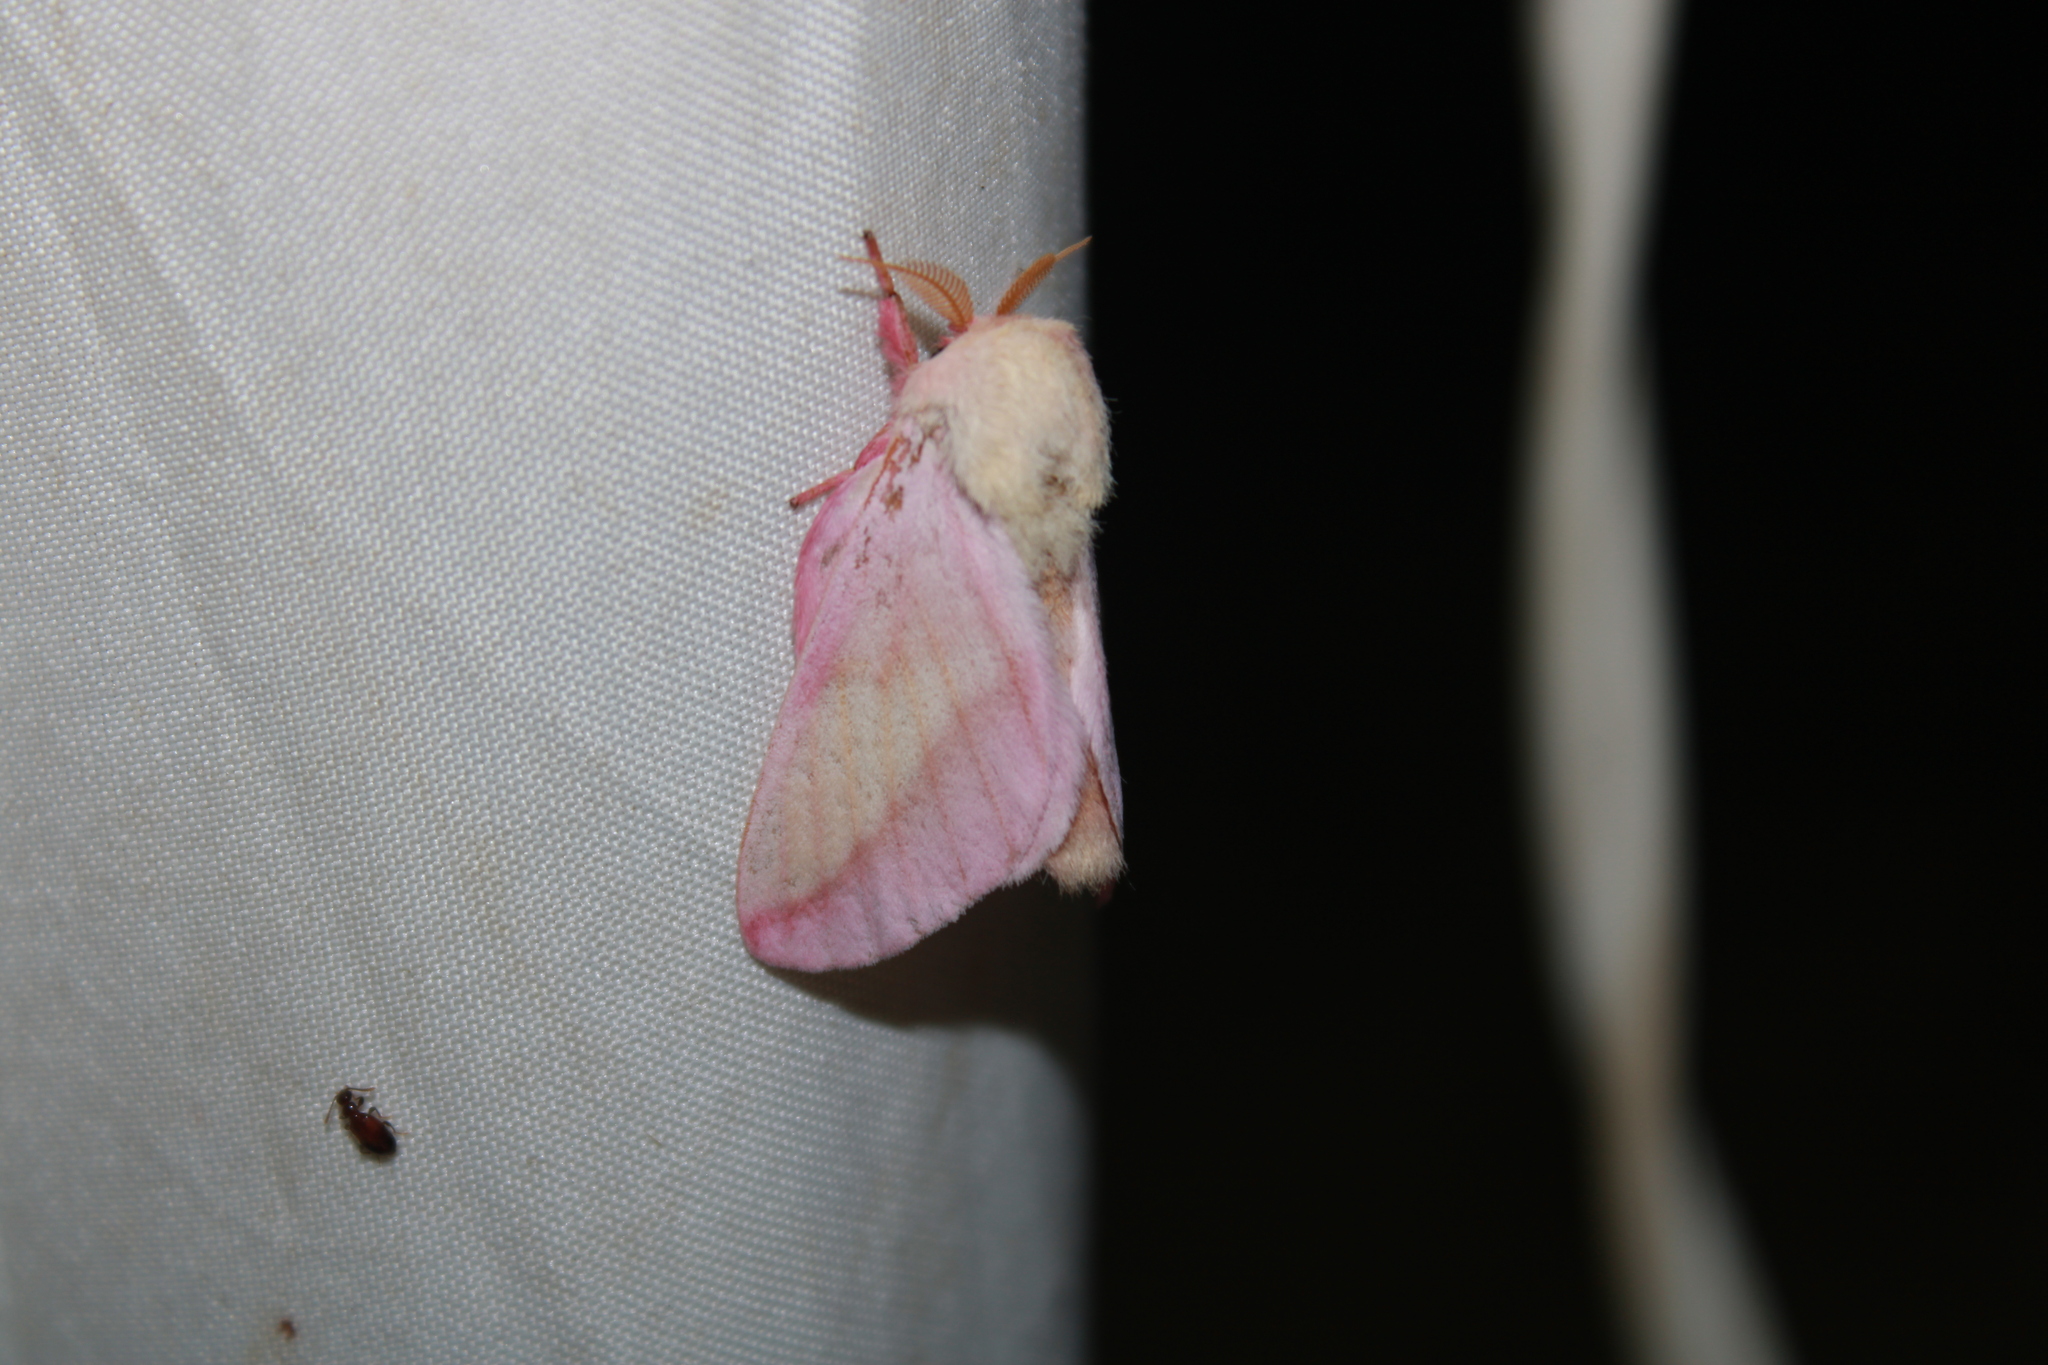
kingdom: Animalia
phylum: Arthropoda
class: Insecta
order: Lepidoptera
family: Saturniidae
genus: Dryocampa
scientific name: Dryocampa rubicunda
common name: Rosy maple moth
